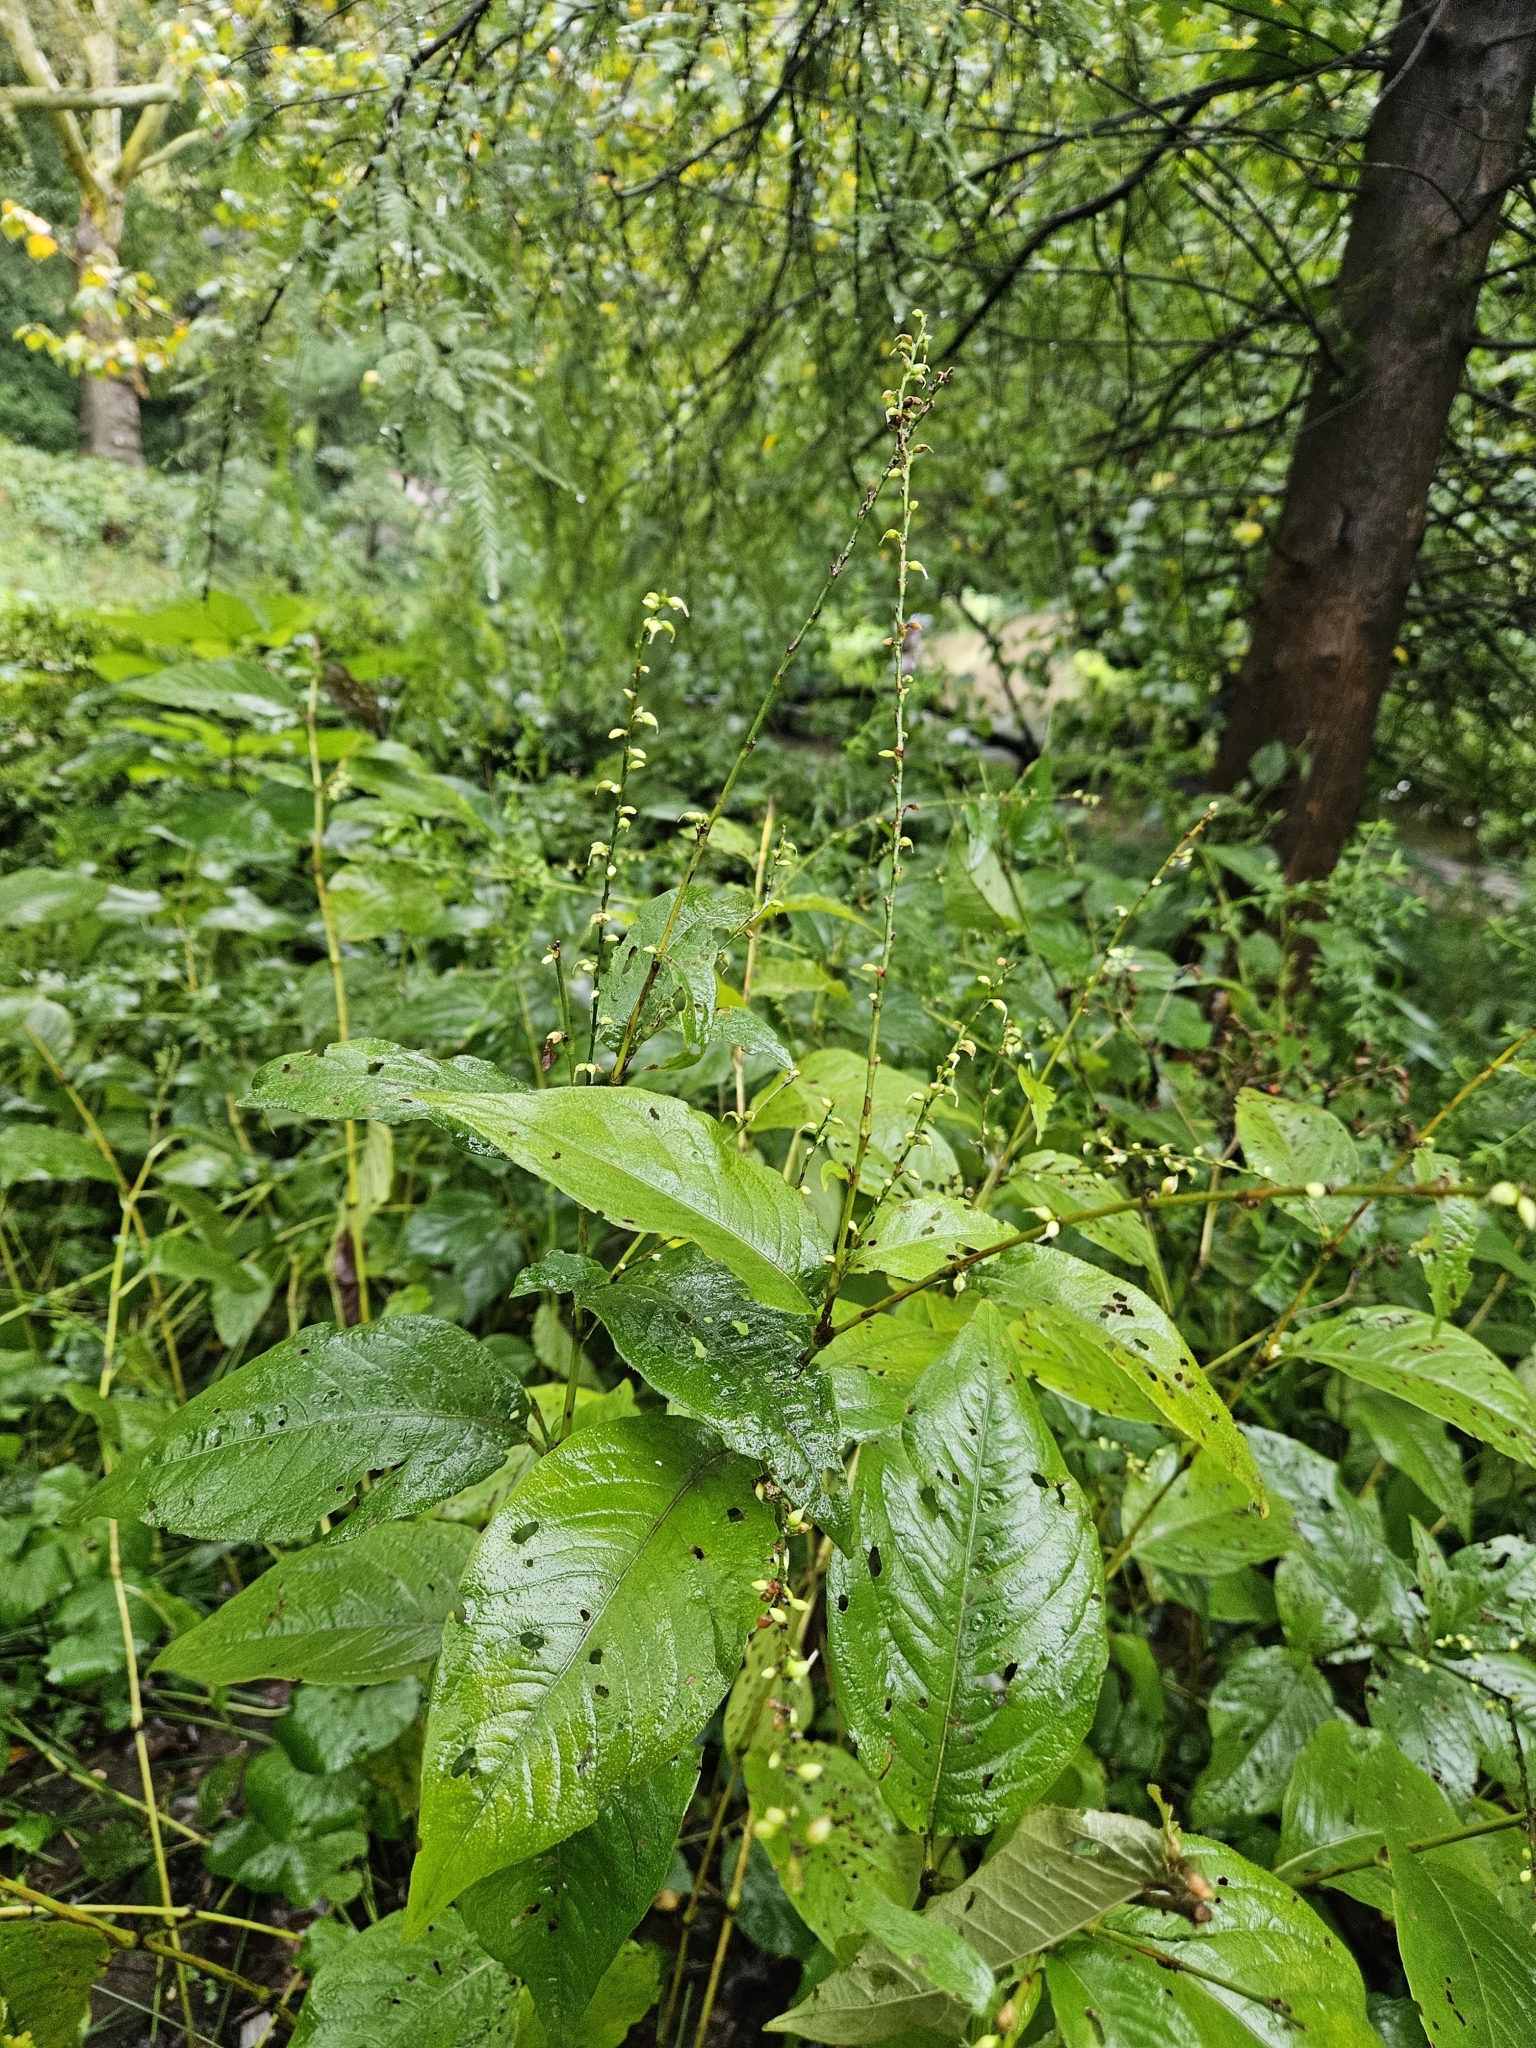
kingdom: Plantae
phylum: Tracheophyta
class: Magnoliopsida
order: Caryophyllales
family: Polygonaceae
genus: Persicaria
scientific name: Persicaria virginiana
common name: Jumpseed
